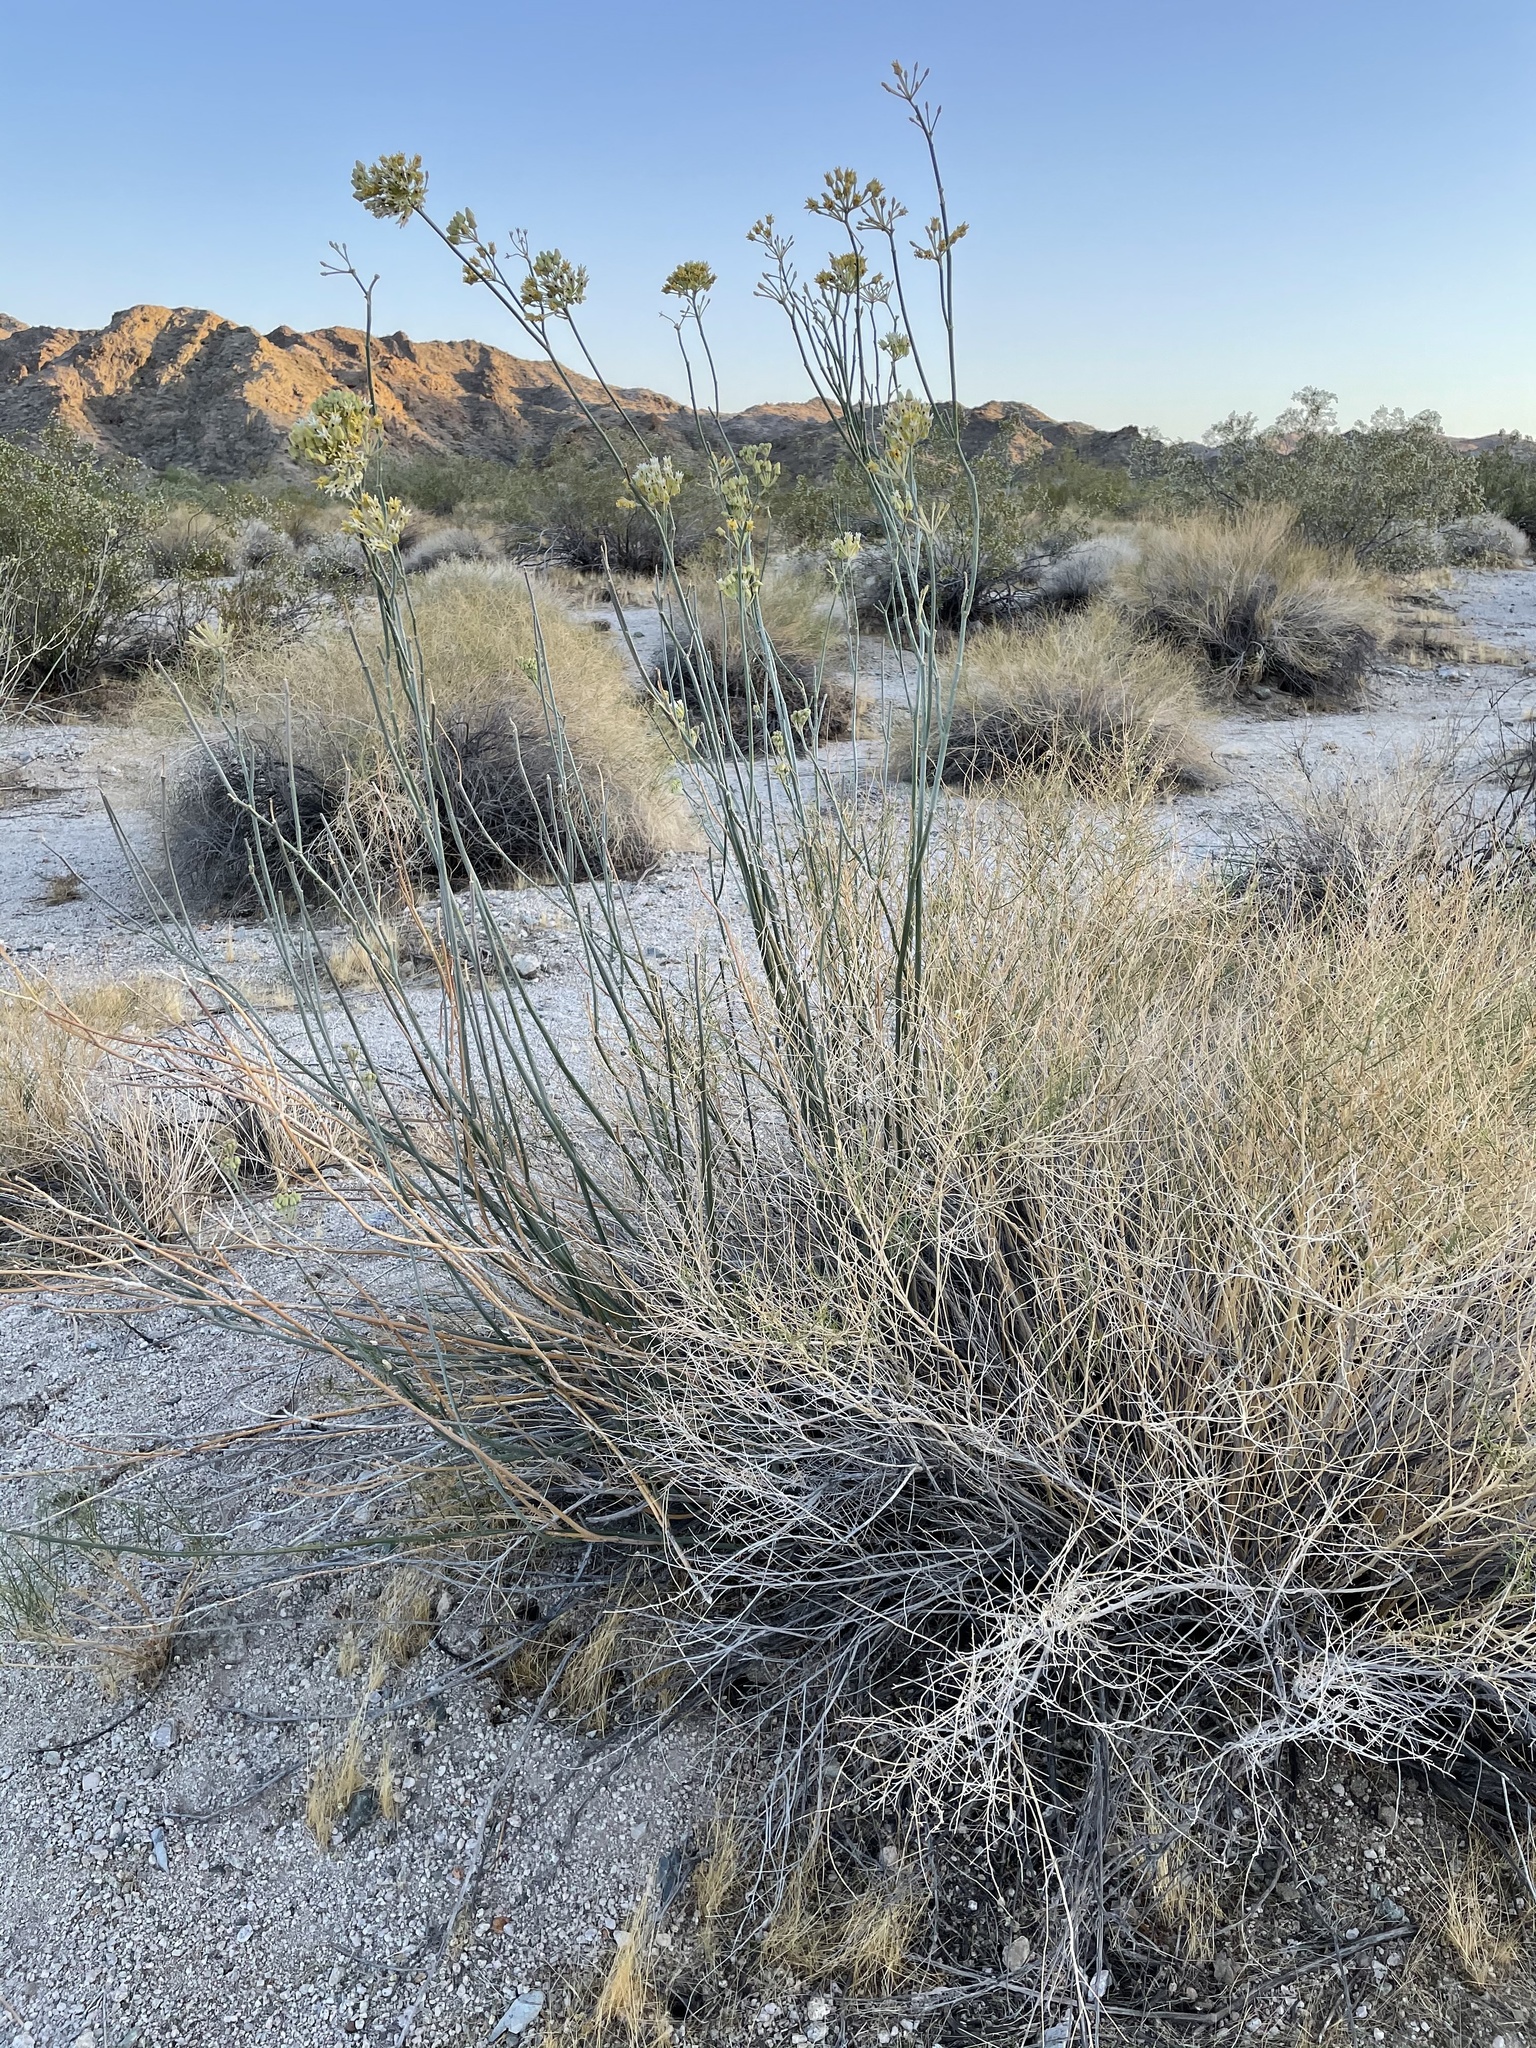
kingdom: Plantae
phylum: Tracheophyta
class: Magnoliopsida
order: Gentianales
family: Apocynaceae
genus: Asclepias
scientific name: Asclepias subulata
